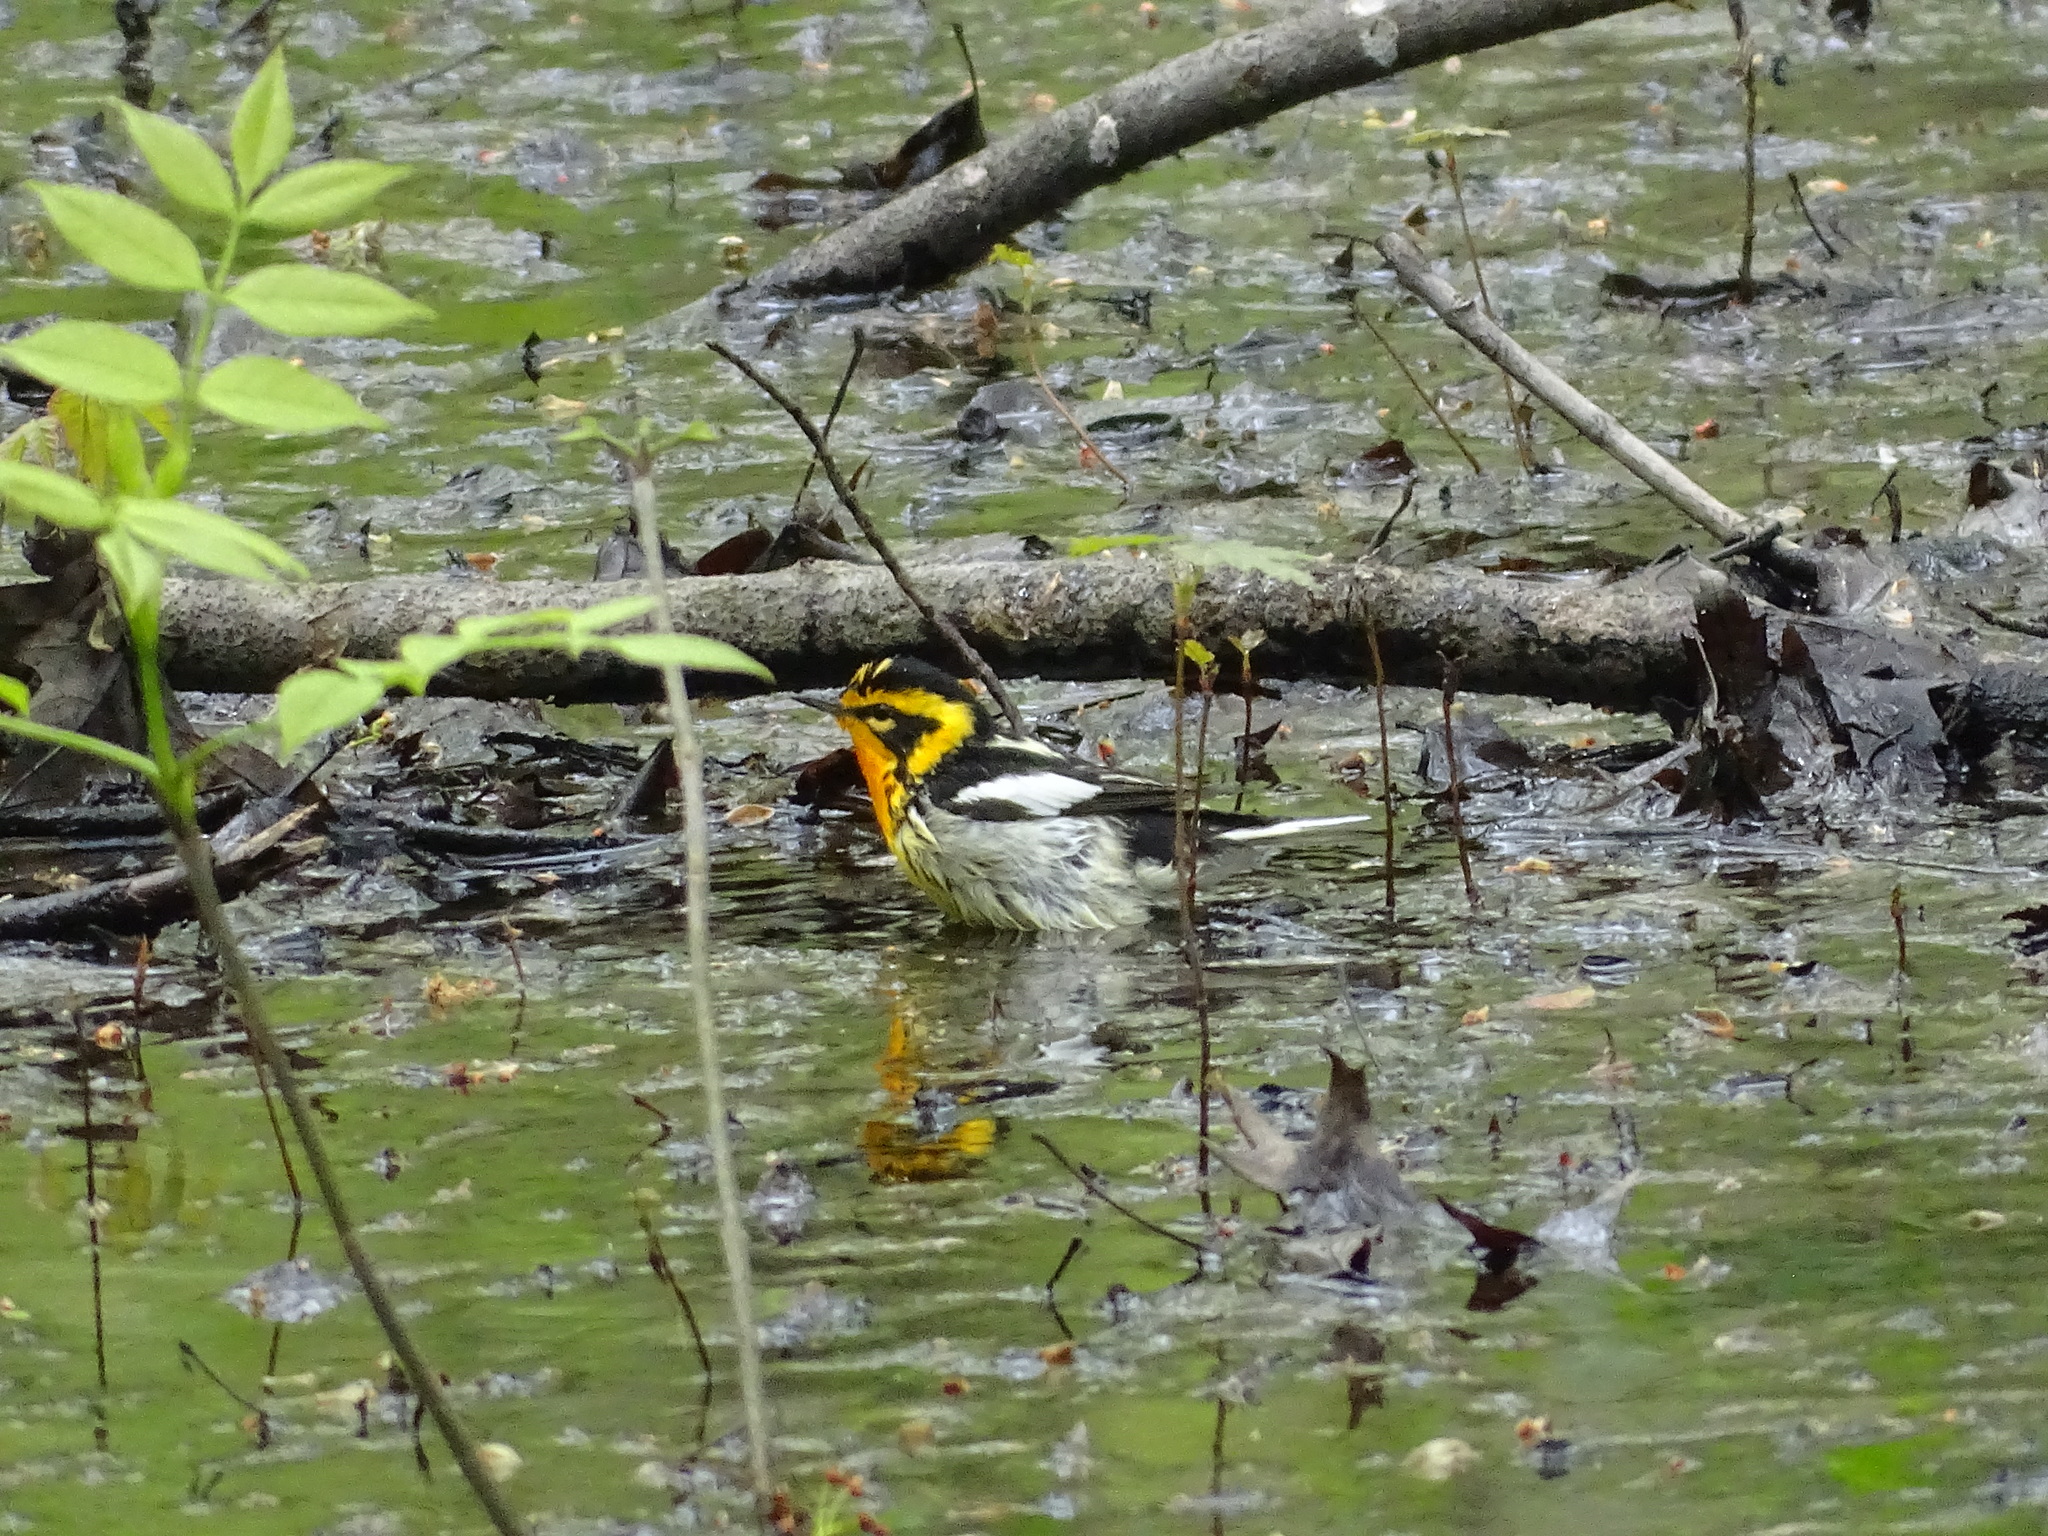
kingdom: Animalia
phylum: Chordata
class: Aves
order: Passeriformes
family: Parulidae
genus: Setophaga
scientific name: Setophaga fusca
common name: Blackburnian warbler
